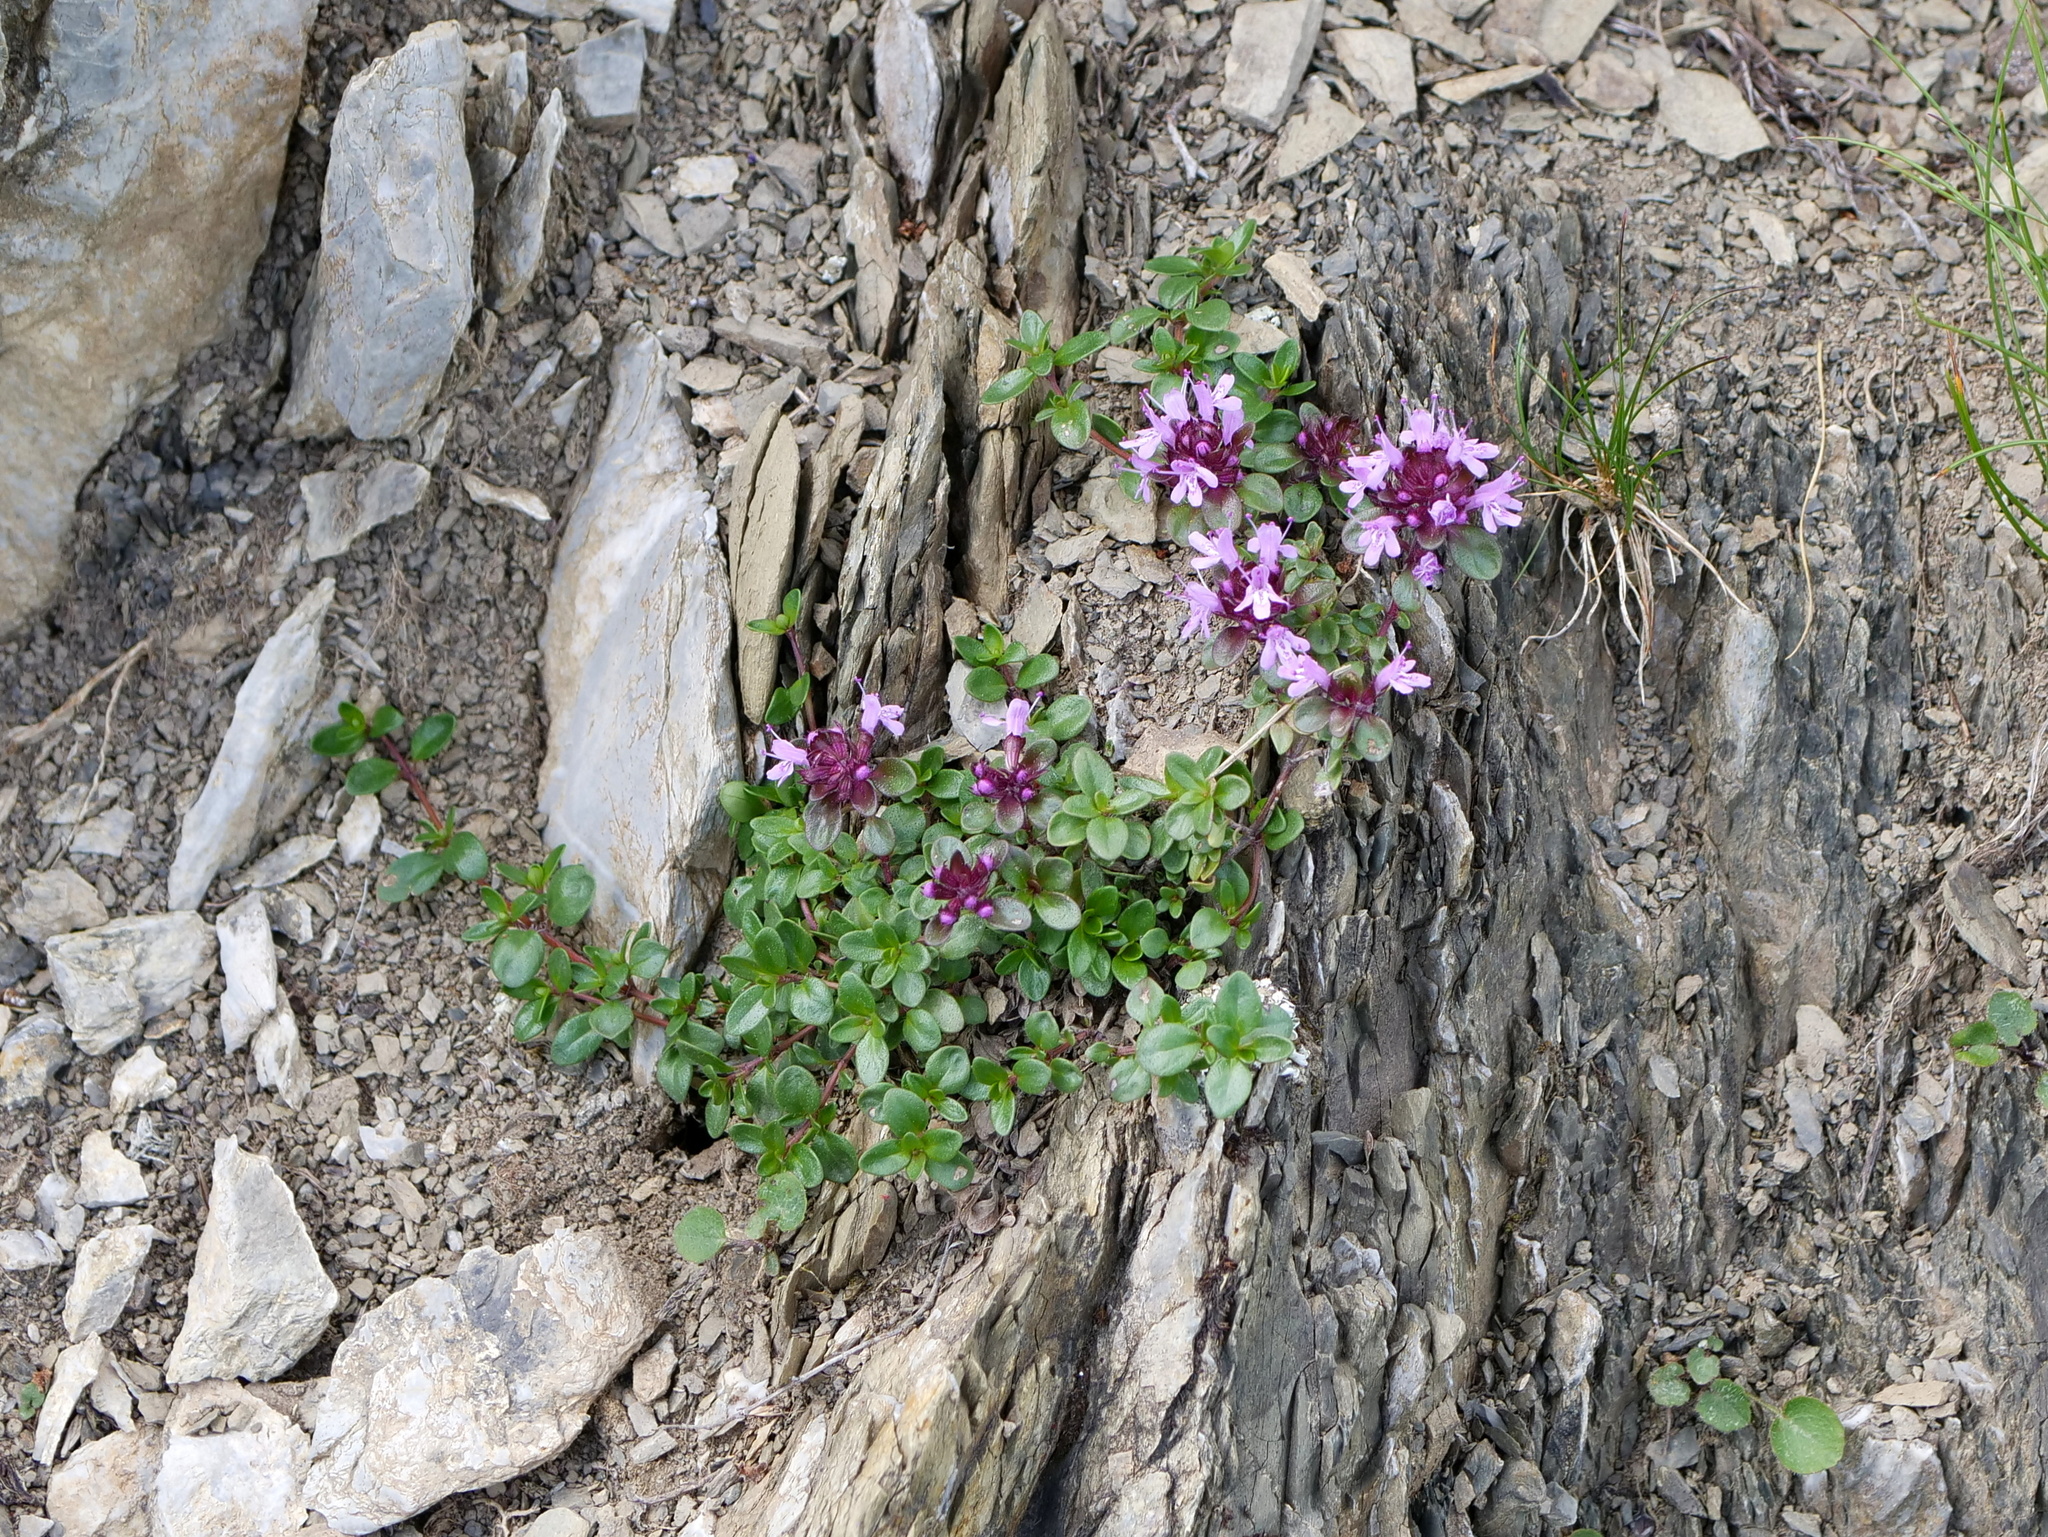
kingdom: Plantae
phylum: Tracheophyta
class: Magnoliopsida
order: Lamiales
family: Lamiaceae
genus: Thymus
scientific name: Thymus praecox
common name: Wild thyme
